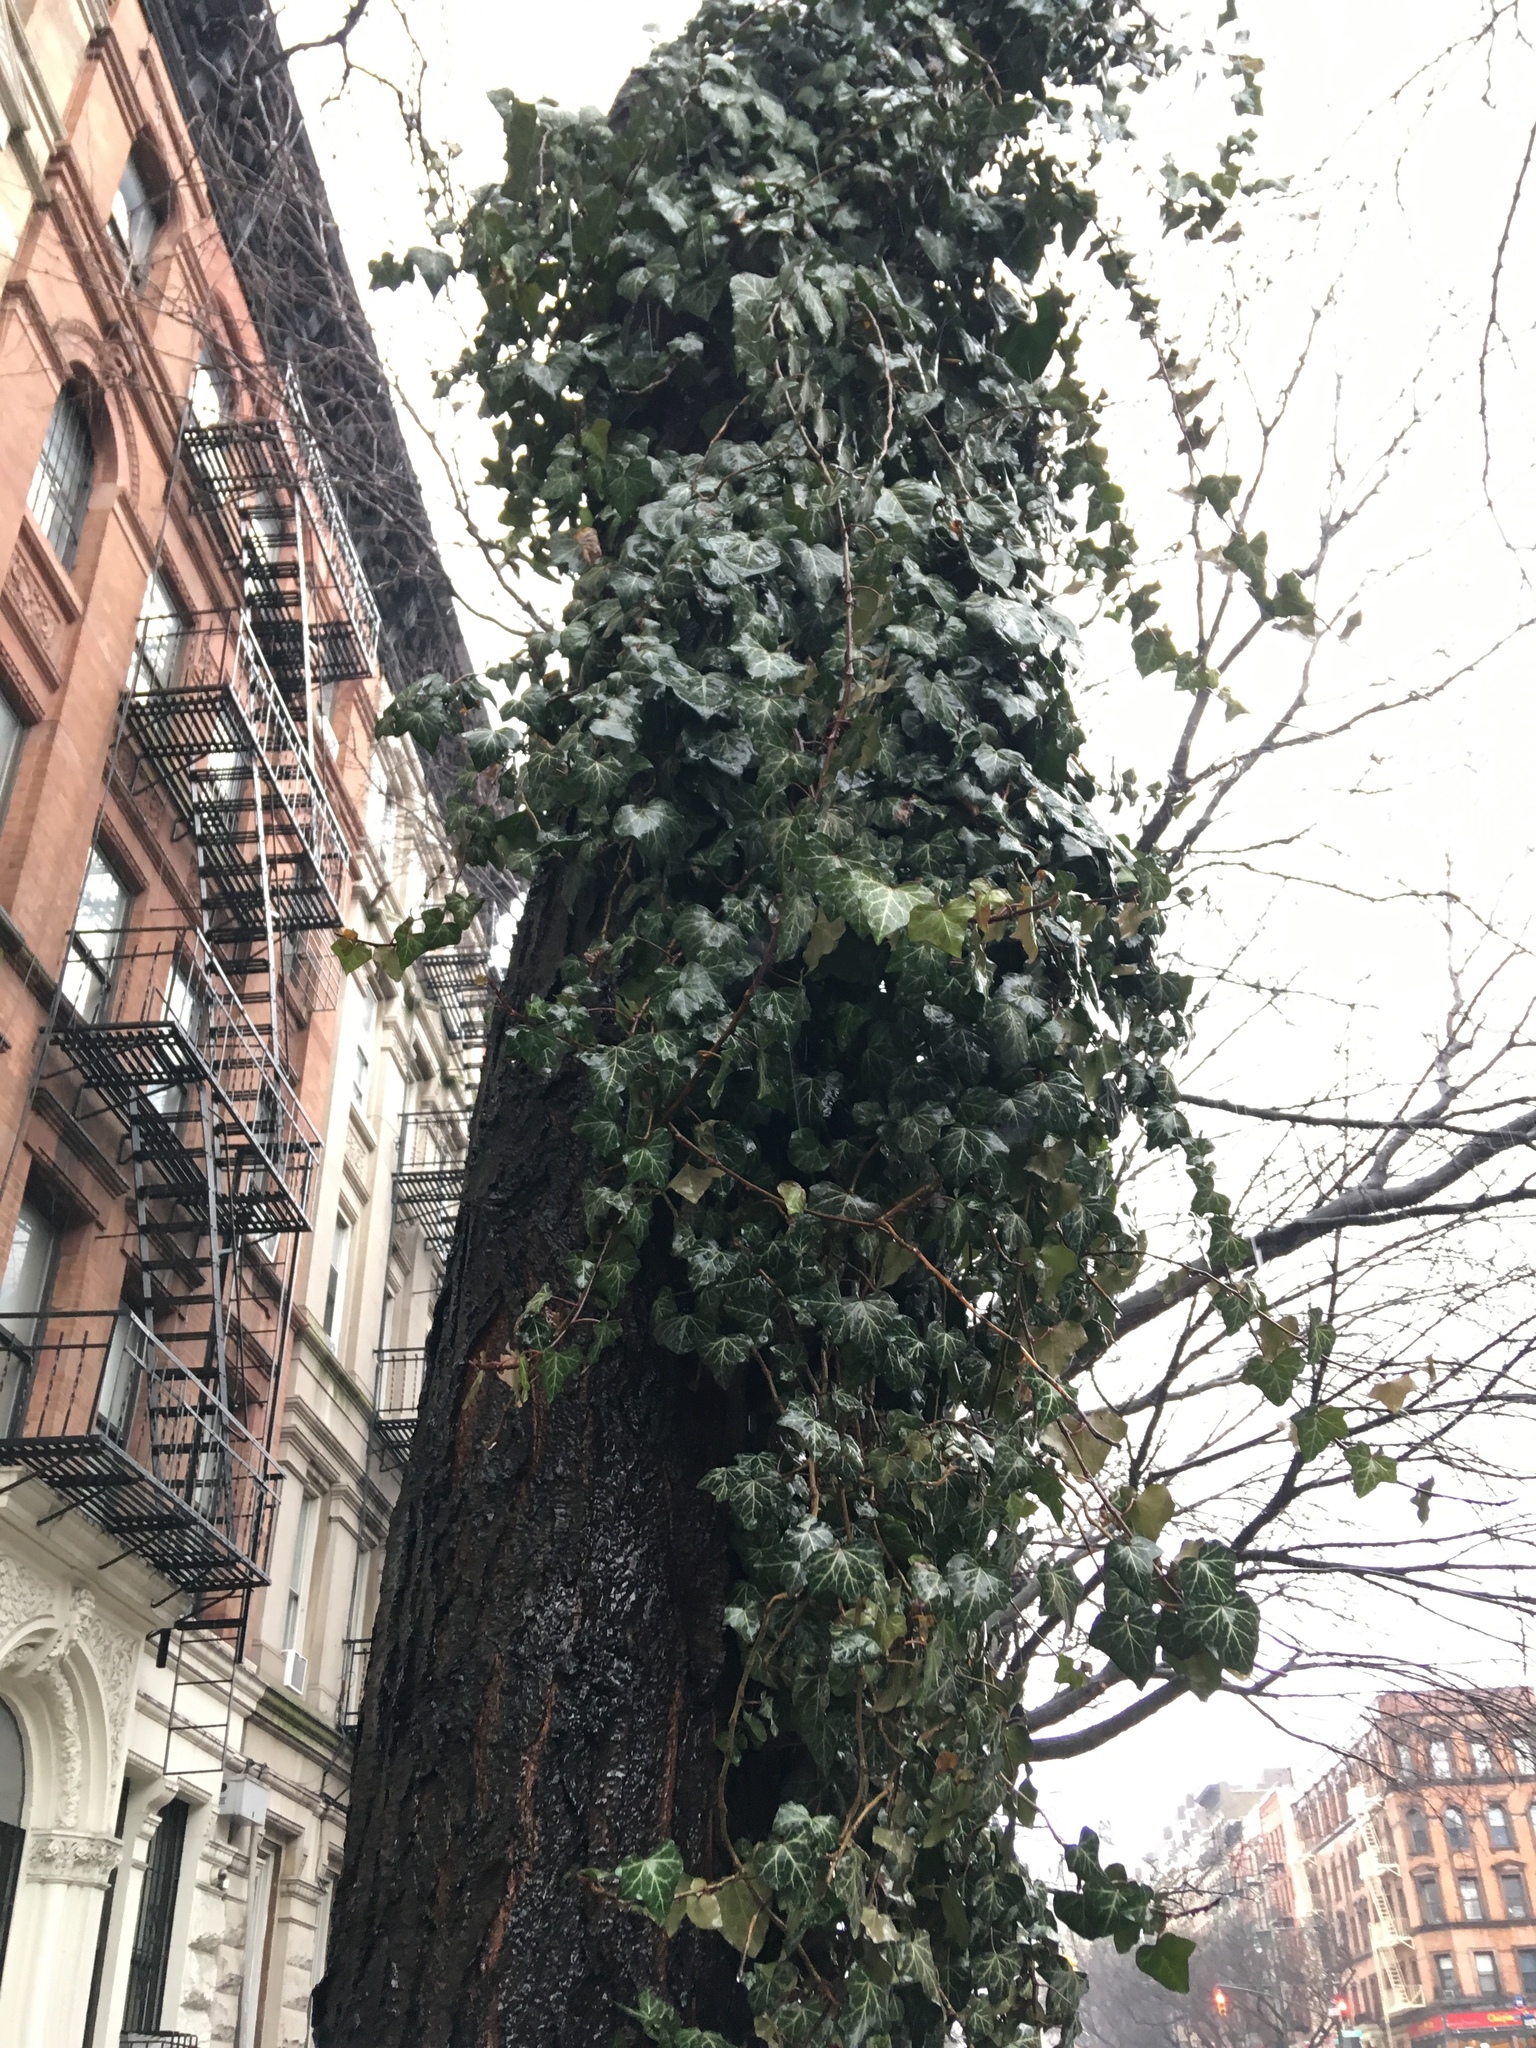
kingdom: Plantae
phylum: Tracheophyta
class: Magnoliopsida
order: Apiales
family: Araliaceae
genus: Hedera
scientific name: Hedera helix
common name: Ivy
